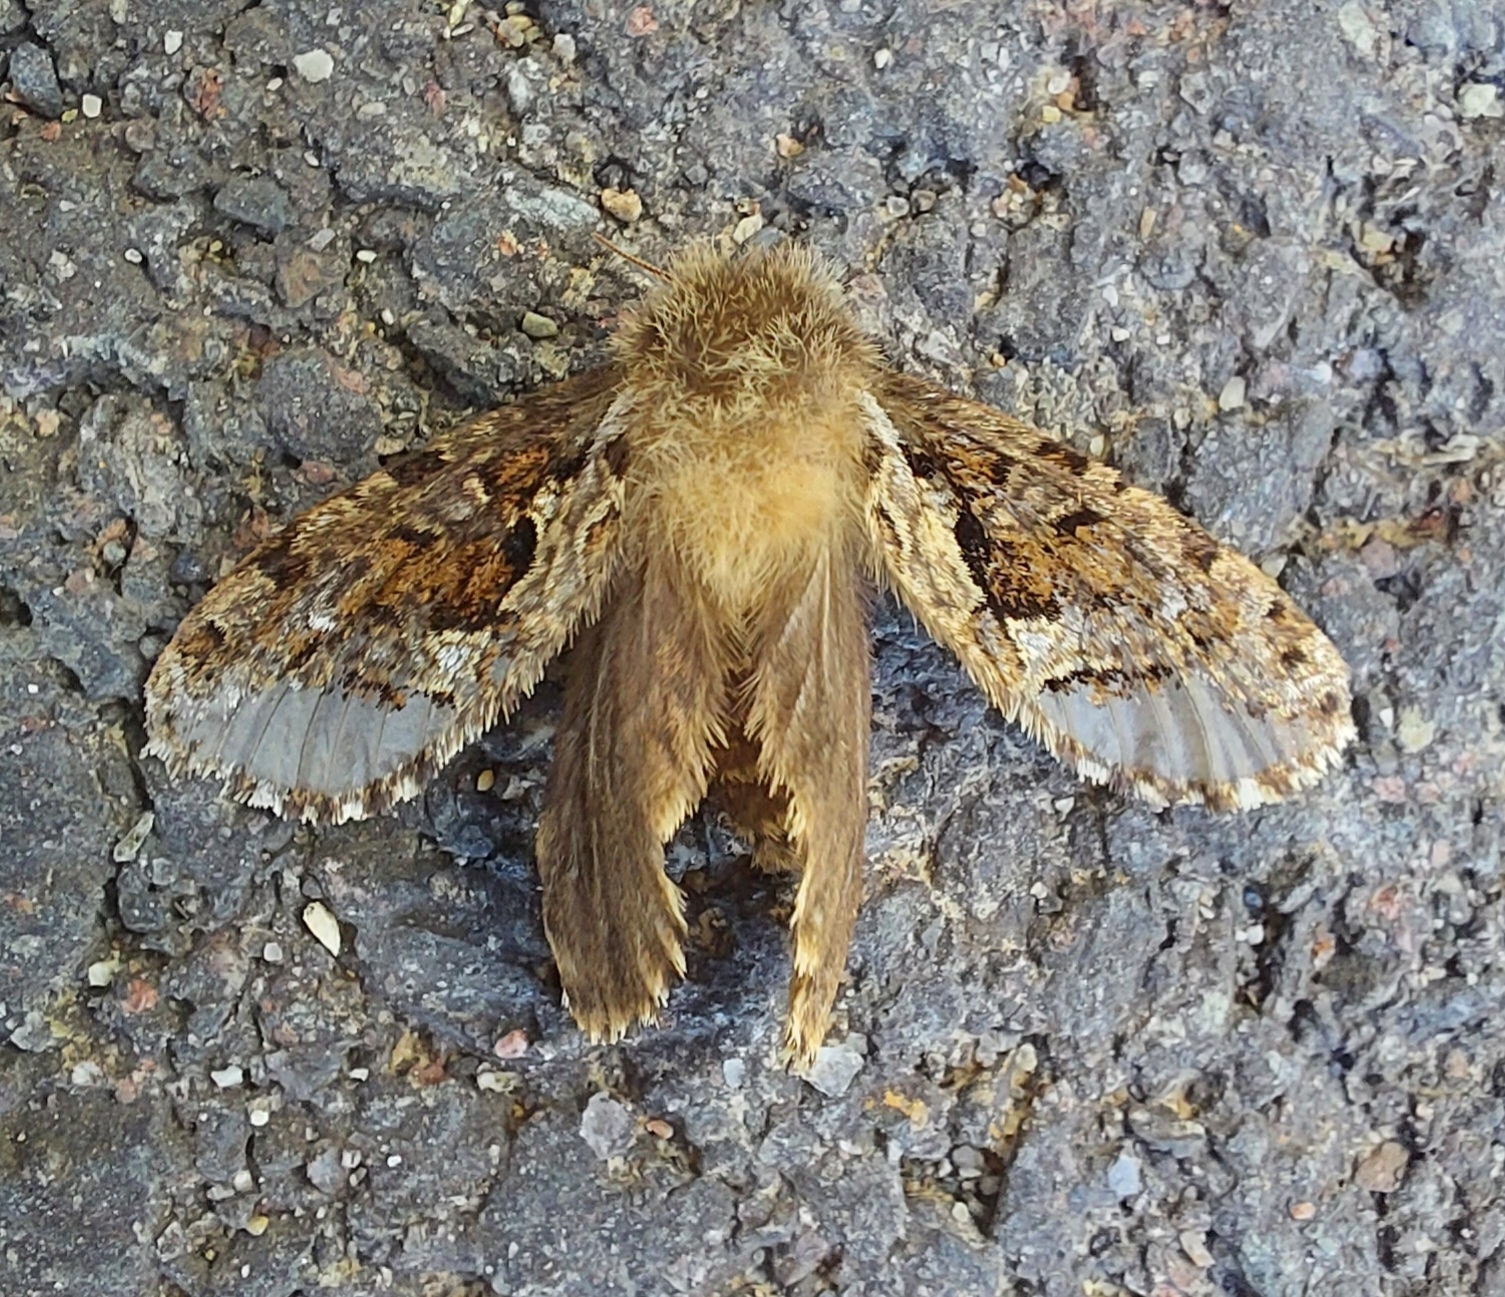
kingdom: Animalia
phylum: Arthropoda
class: Insecta
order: Lepidoptera
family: Hepialidae
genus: Korscheltellus
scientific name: Korscheltellus gracilis
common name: Conifer swift moth
